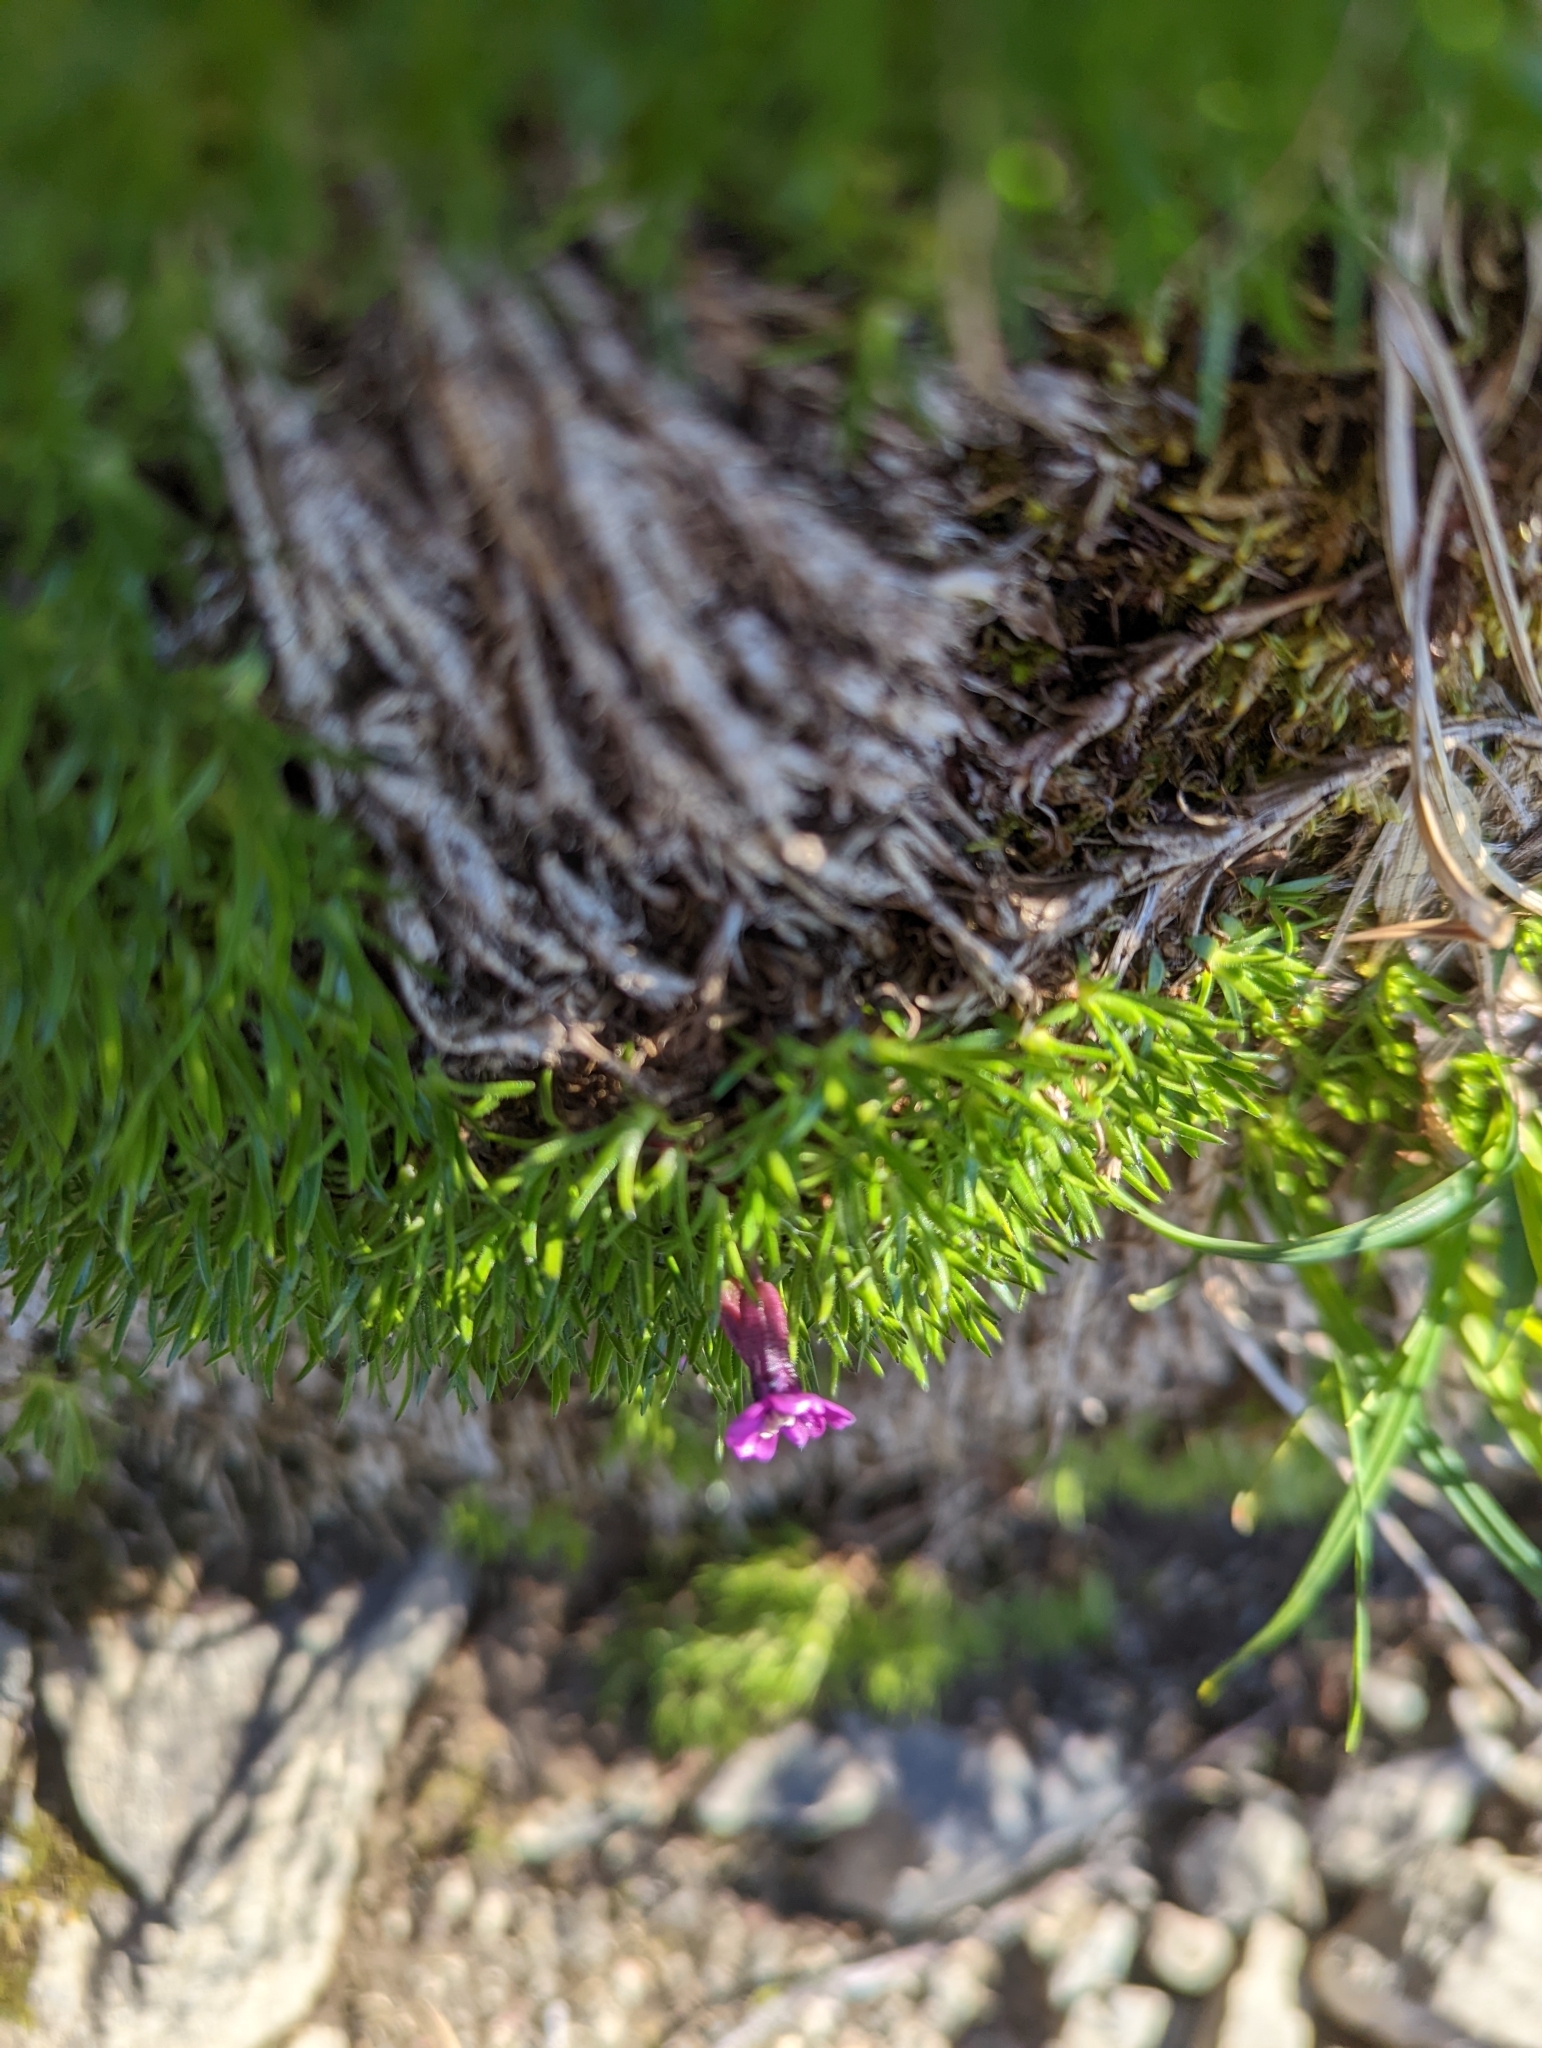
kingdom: Plantae
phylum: Tracheophyta
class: Magnoliopsida
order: Caryophyllales
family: Caryophyllaceae
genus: Silene
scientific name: Silene acaulis
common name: Moss campion
